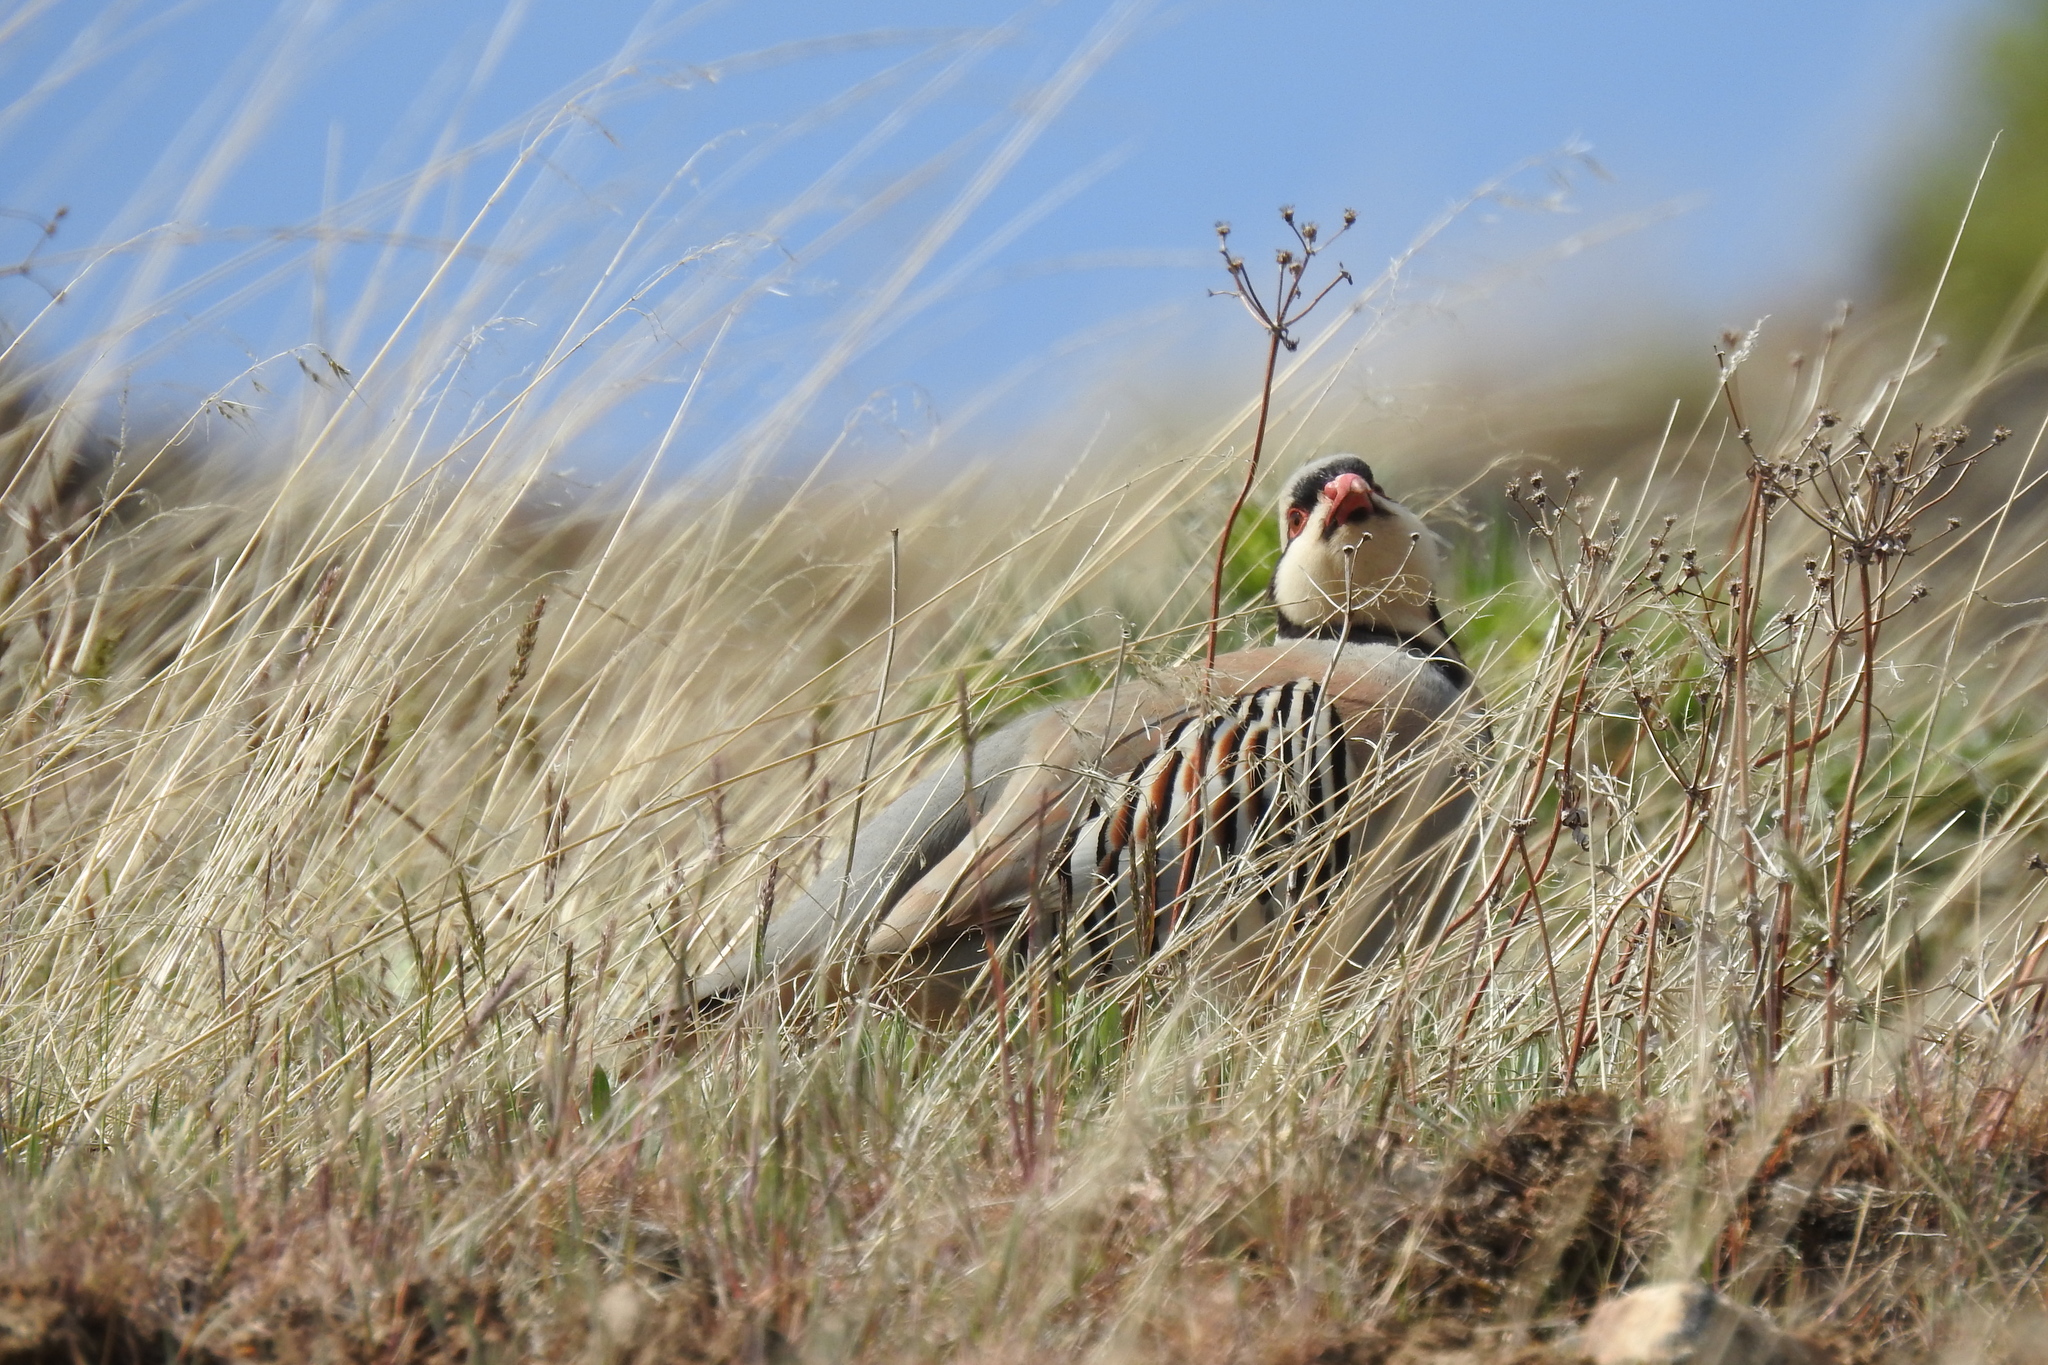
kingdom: Animalia
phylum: Chordata
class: Aves
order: Galliformes
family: Phasianidae
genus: Alectoris
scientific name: Alectoris chukar
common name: Chukar
